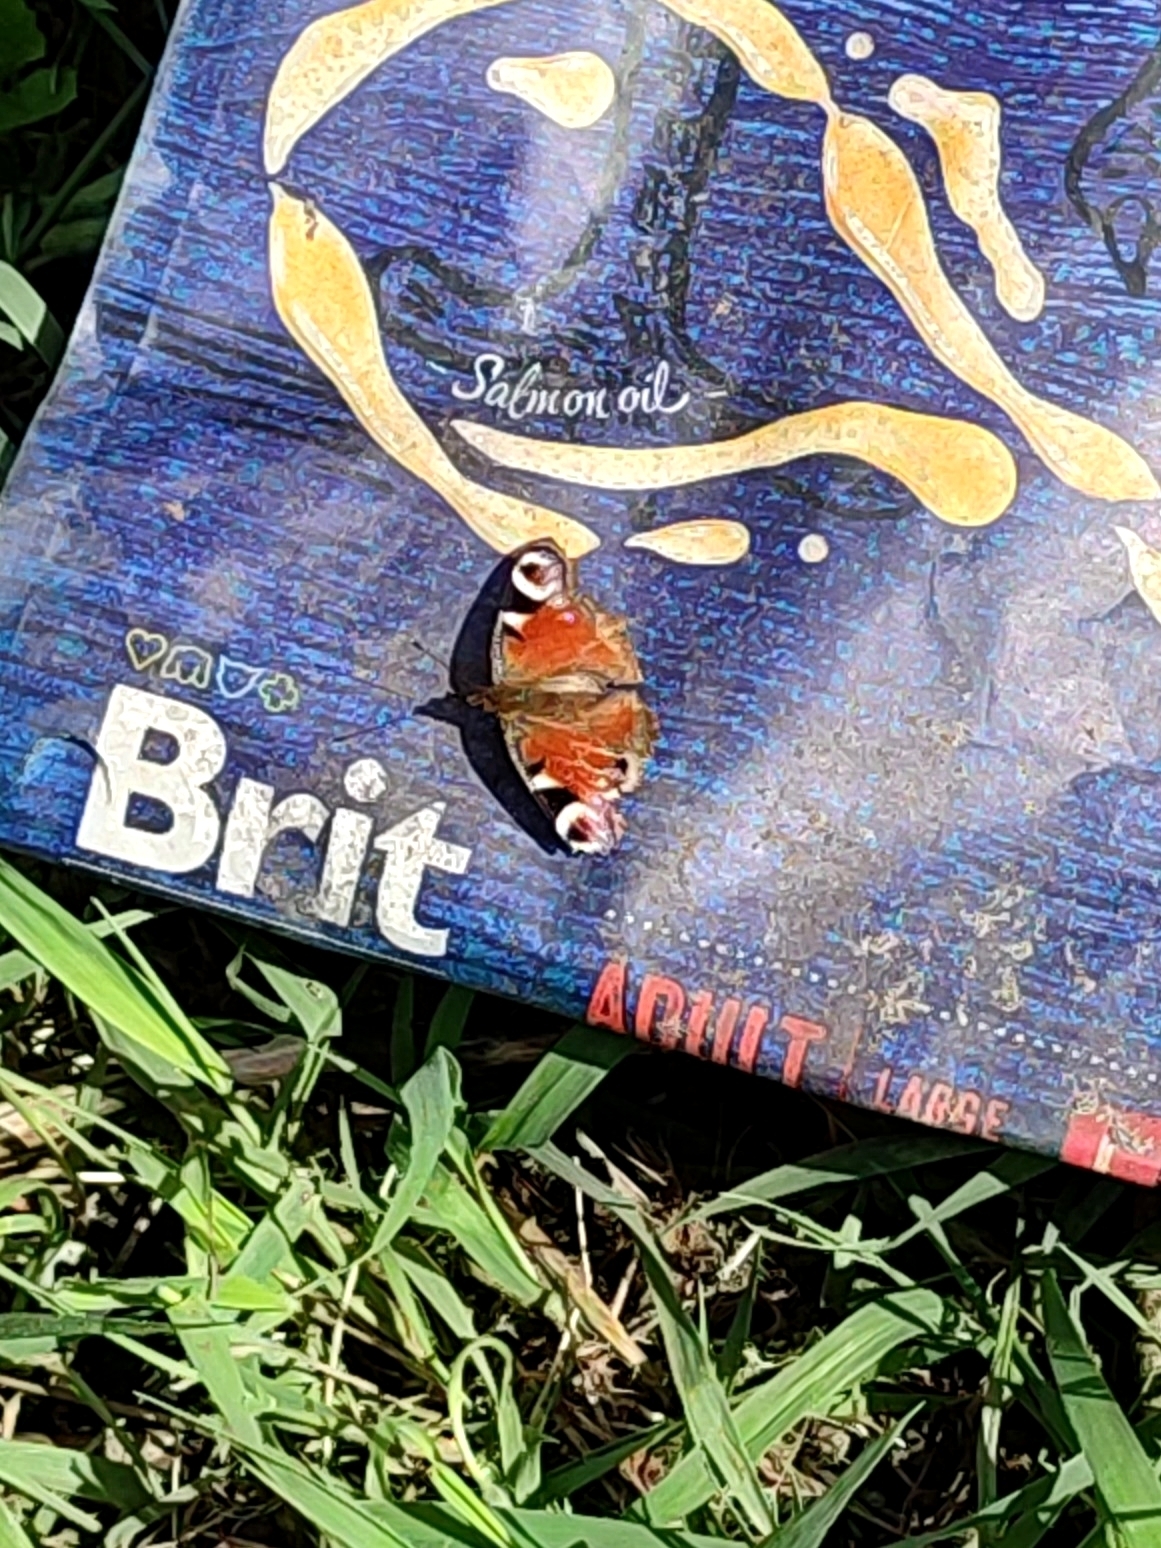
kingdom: Animalia
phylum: Arthropoda
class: Insecta
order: Lepidoptera
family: Nymphalidae
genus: Aglais
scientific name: Aglais io
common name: Peacock
